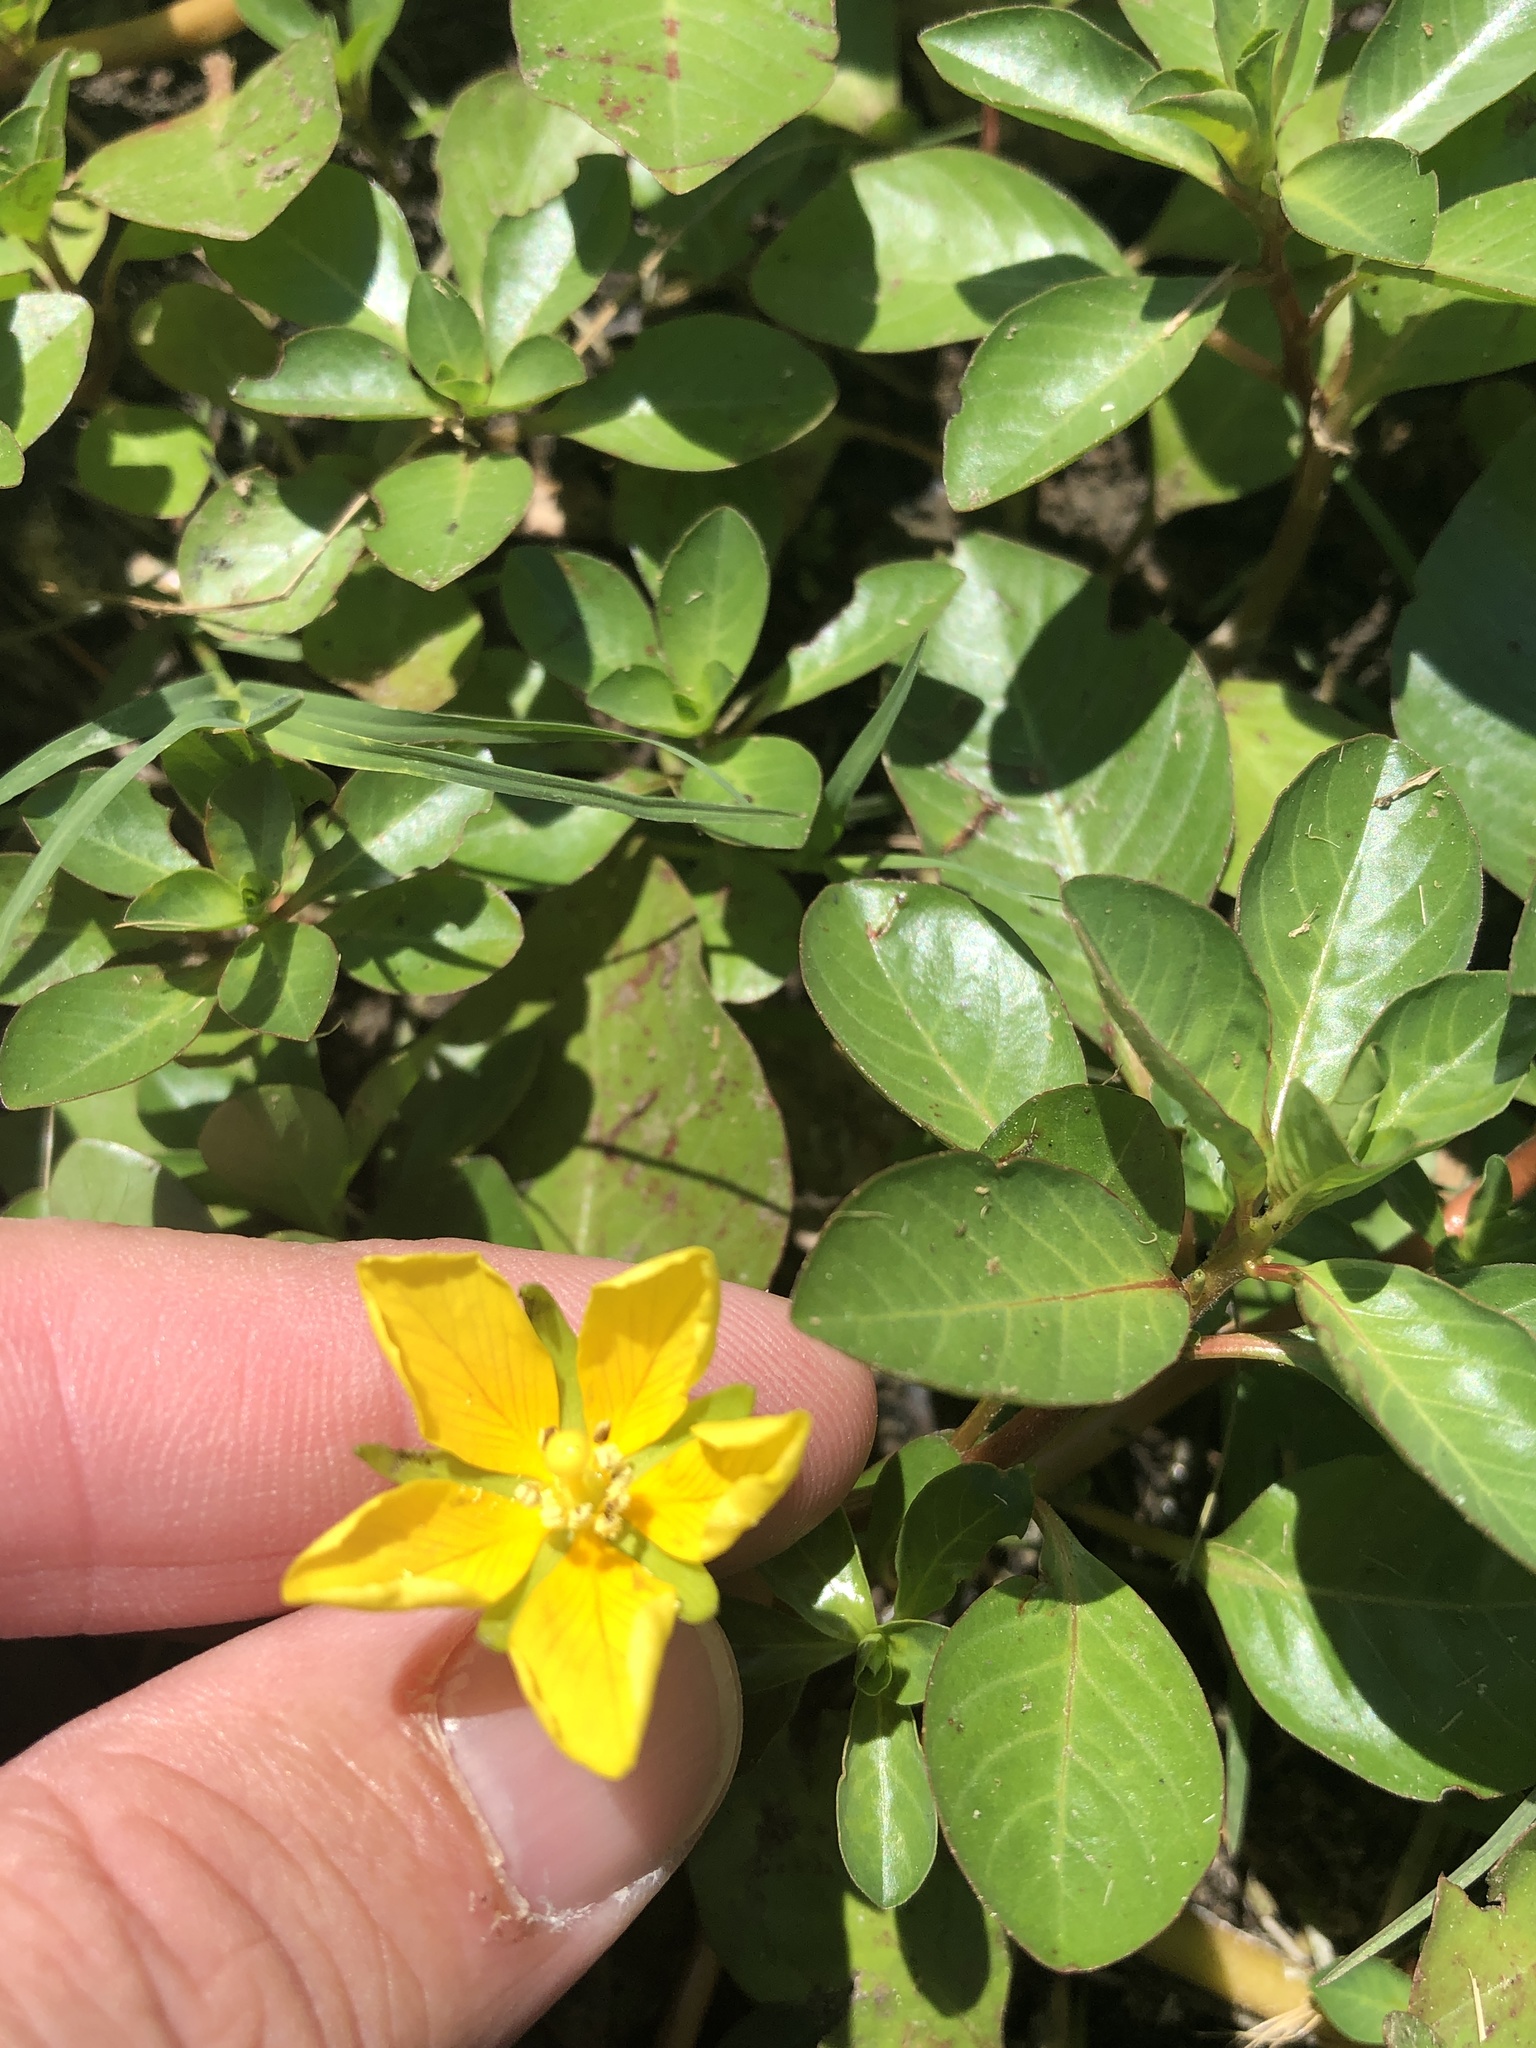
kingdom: Plantae
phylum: Tracheophyta
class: Magnoliopsida
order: Myrtales
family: Onagraceae
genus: Ludwigia
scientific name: Ludwigia peploides
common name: Floating primrose-willow
